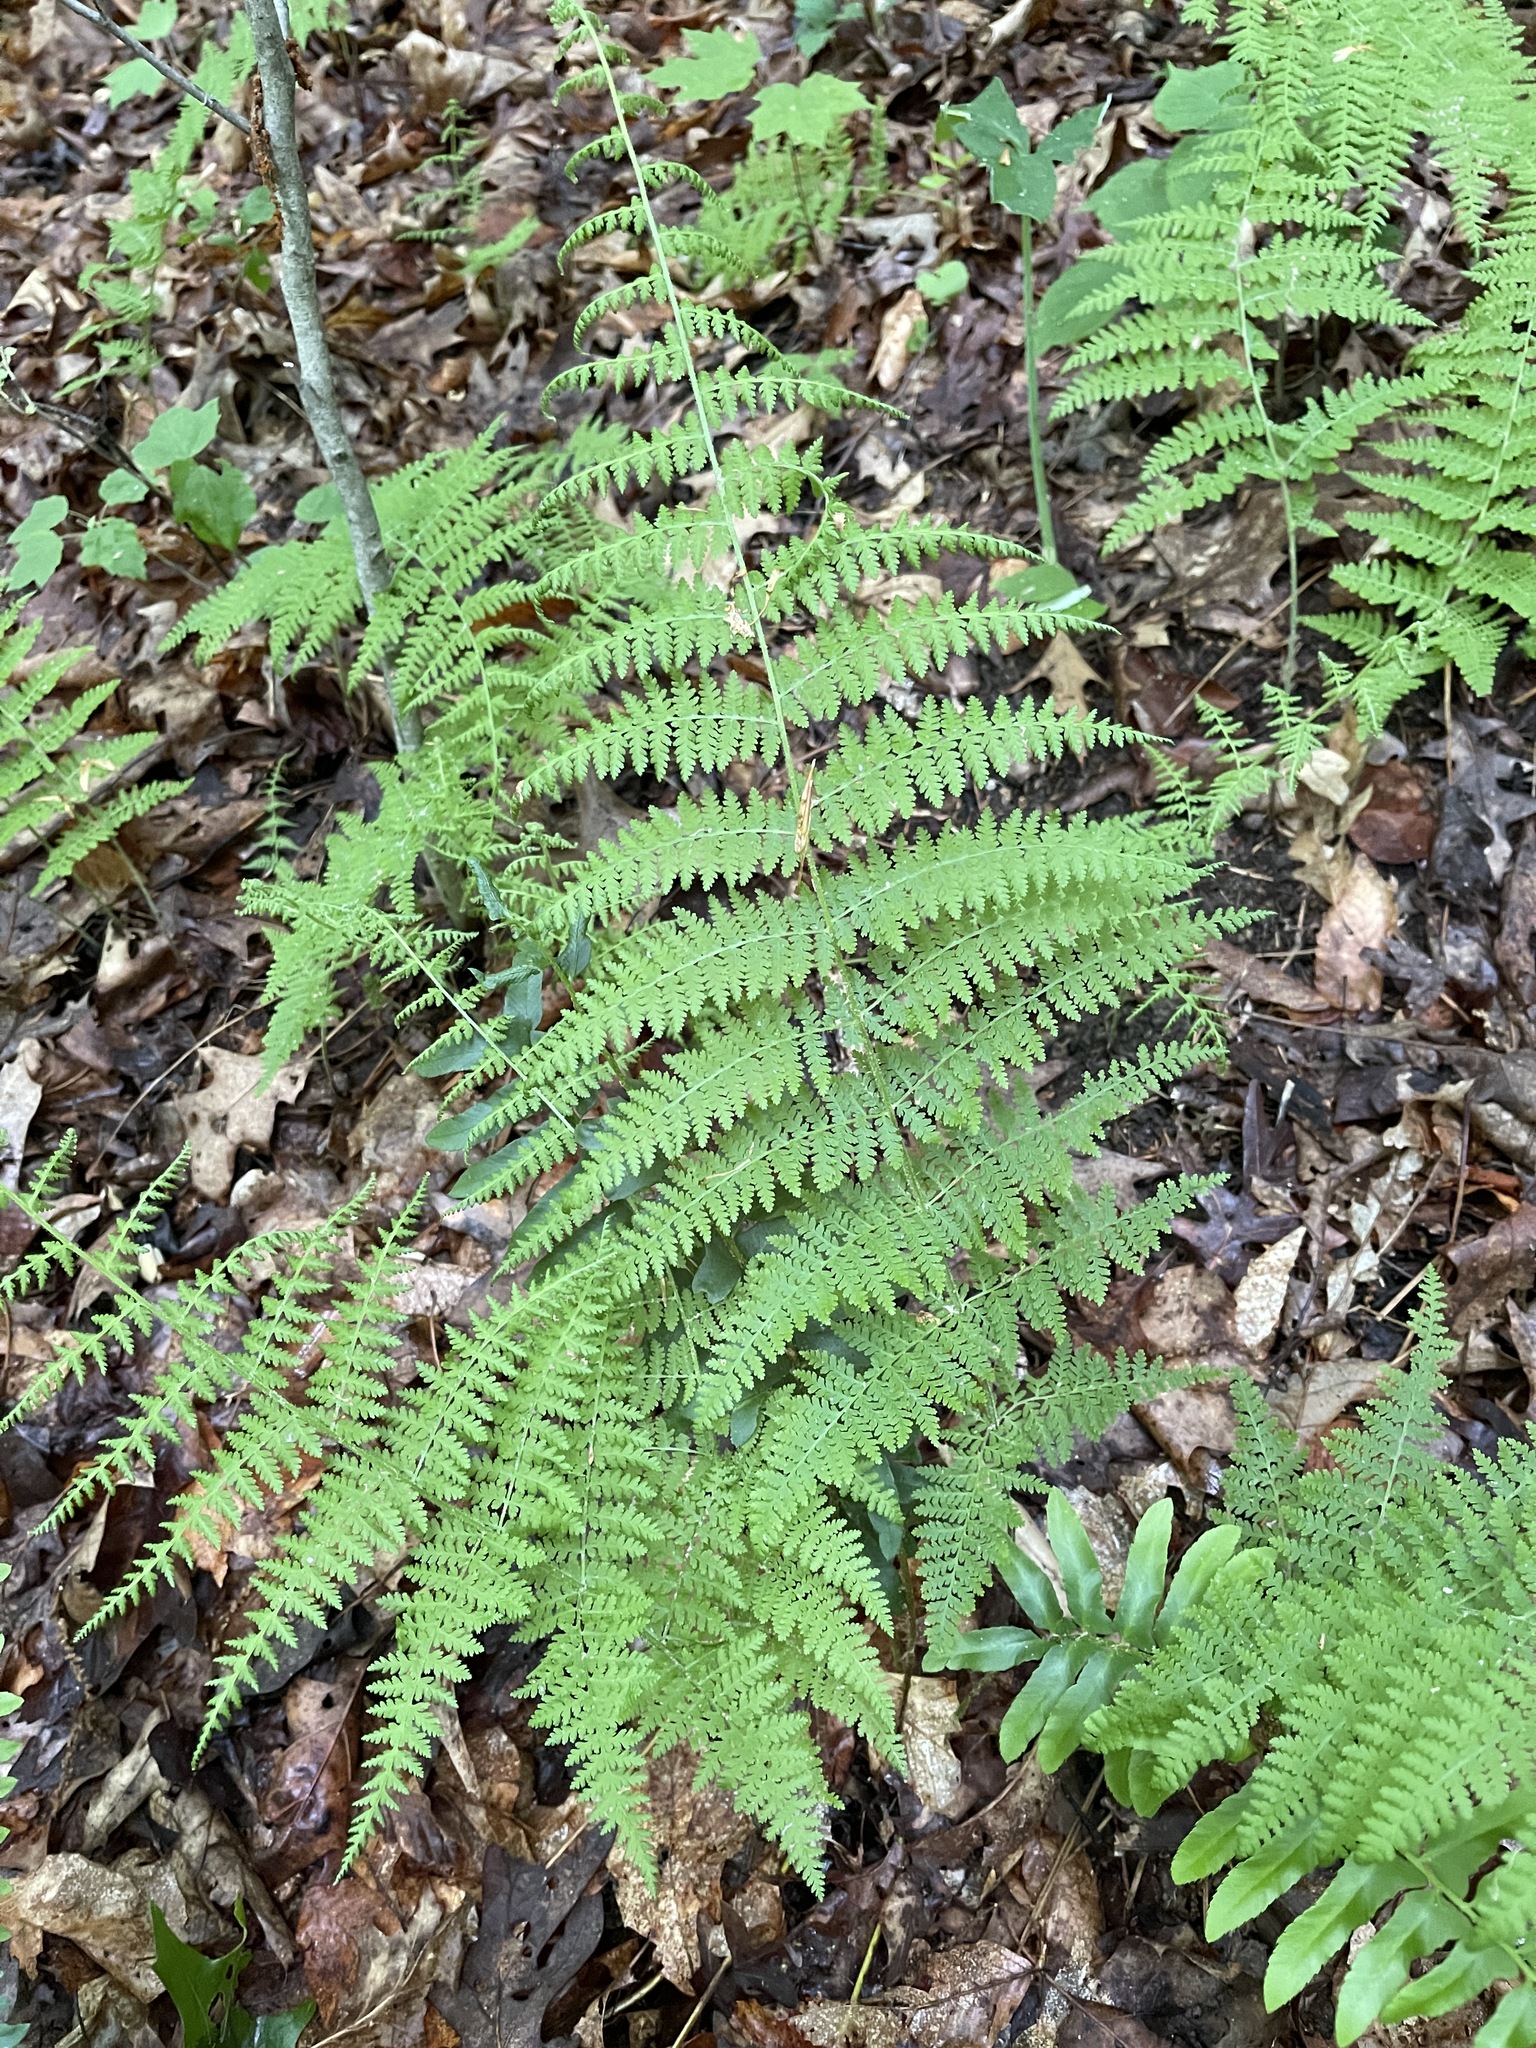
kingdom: Plantae
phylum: Tracheophyta
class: Polypodiopsida
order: Polypodiales
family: Dennstaedtiaceae
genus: Sitobolium
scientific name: Sitobolium punctilobum
